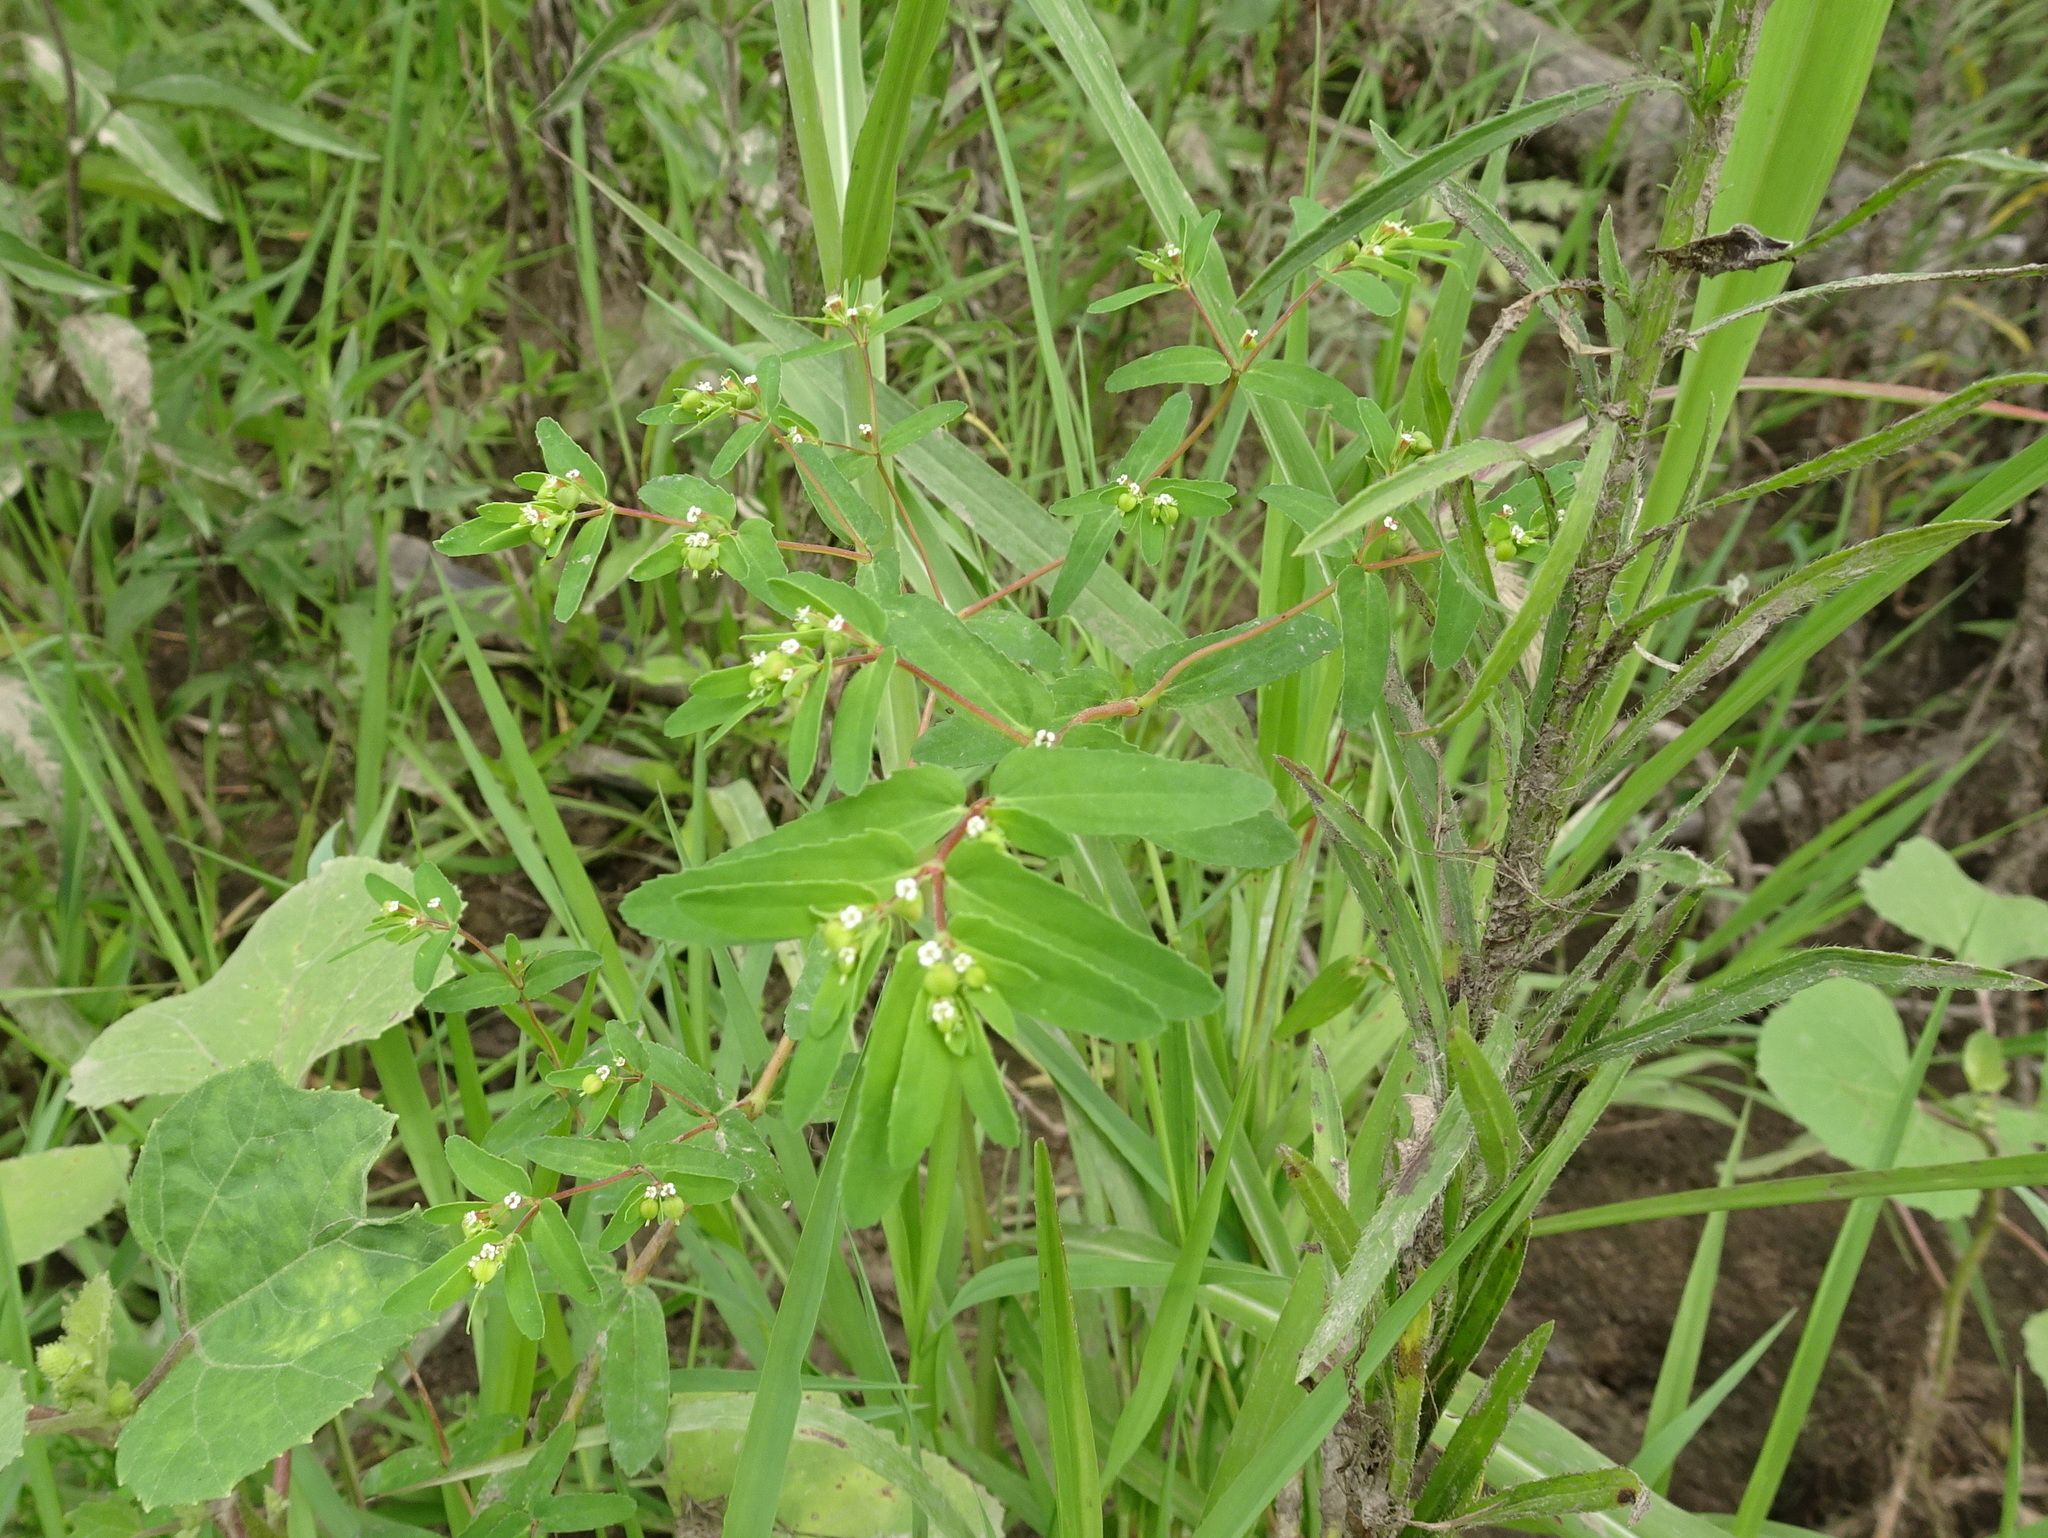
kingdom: Plantae
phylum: Tracheophyta
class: Magnoliopsida
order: Malpighiales
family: Euphorbiaceae
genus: Euphorbia
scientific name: Euphorbia nutans
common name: Eyebane
